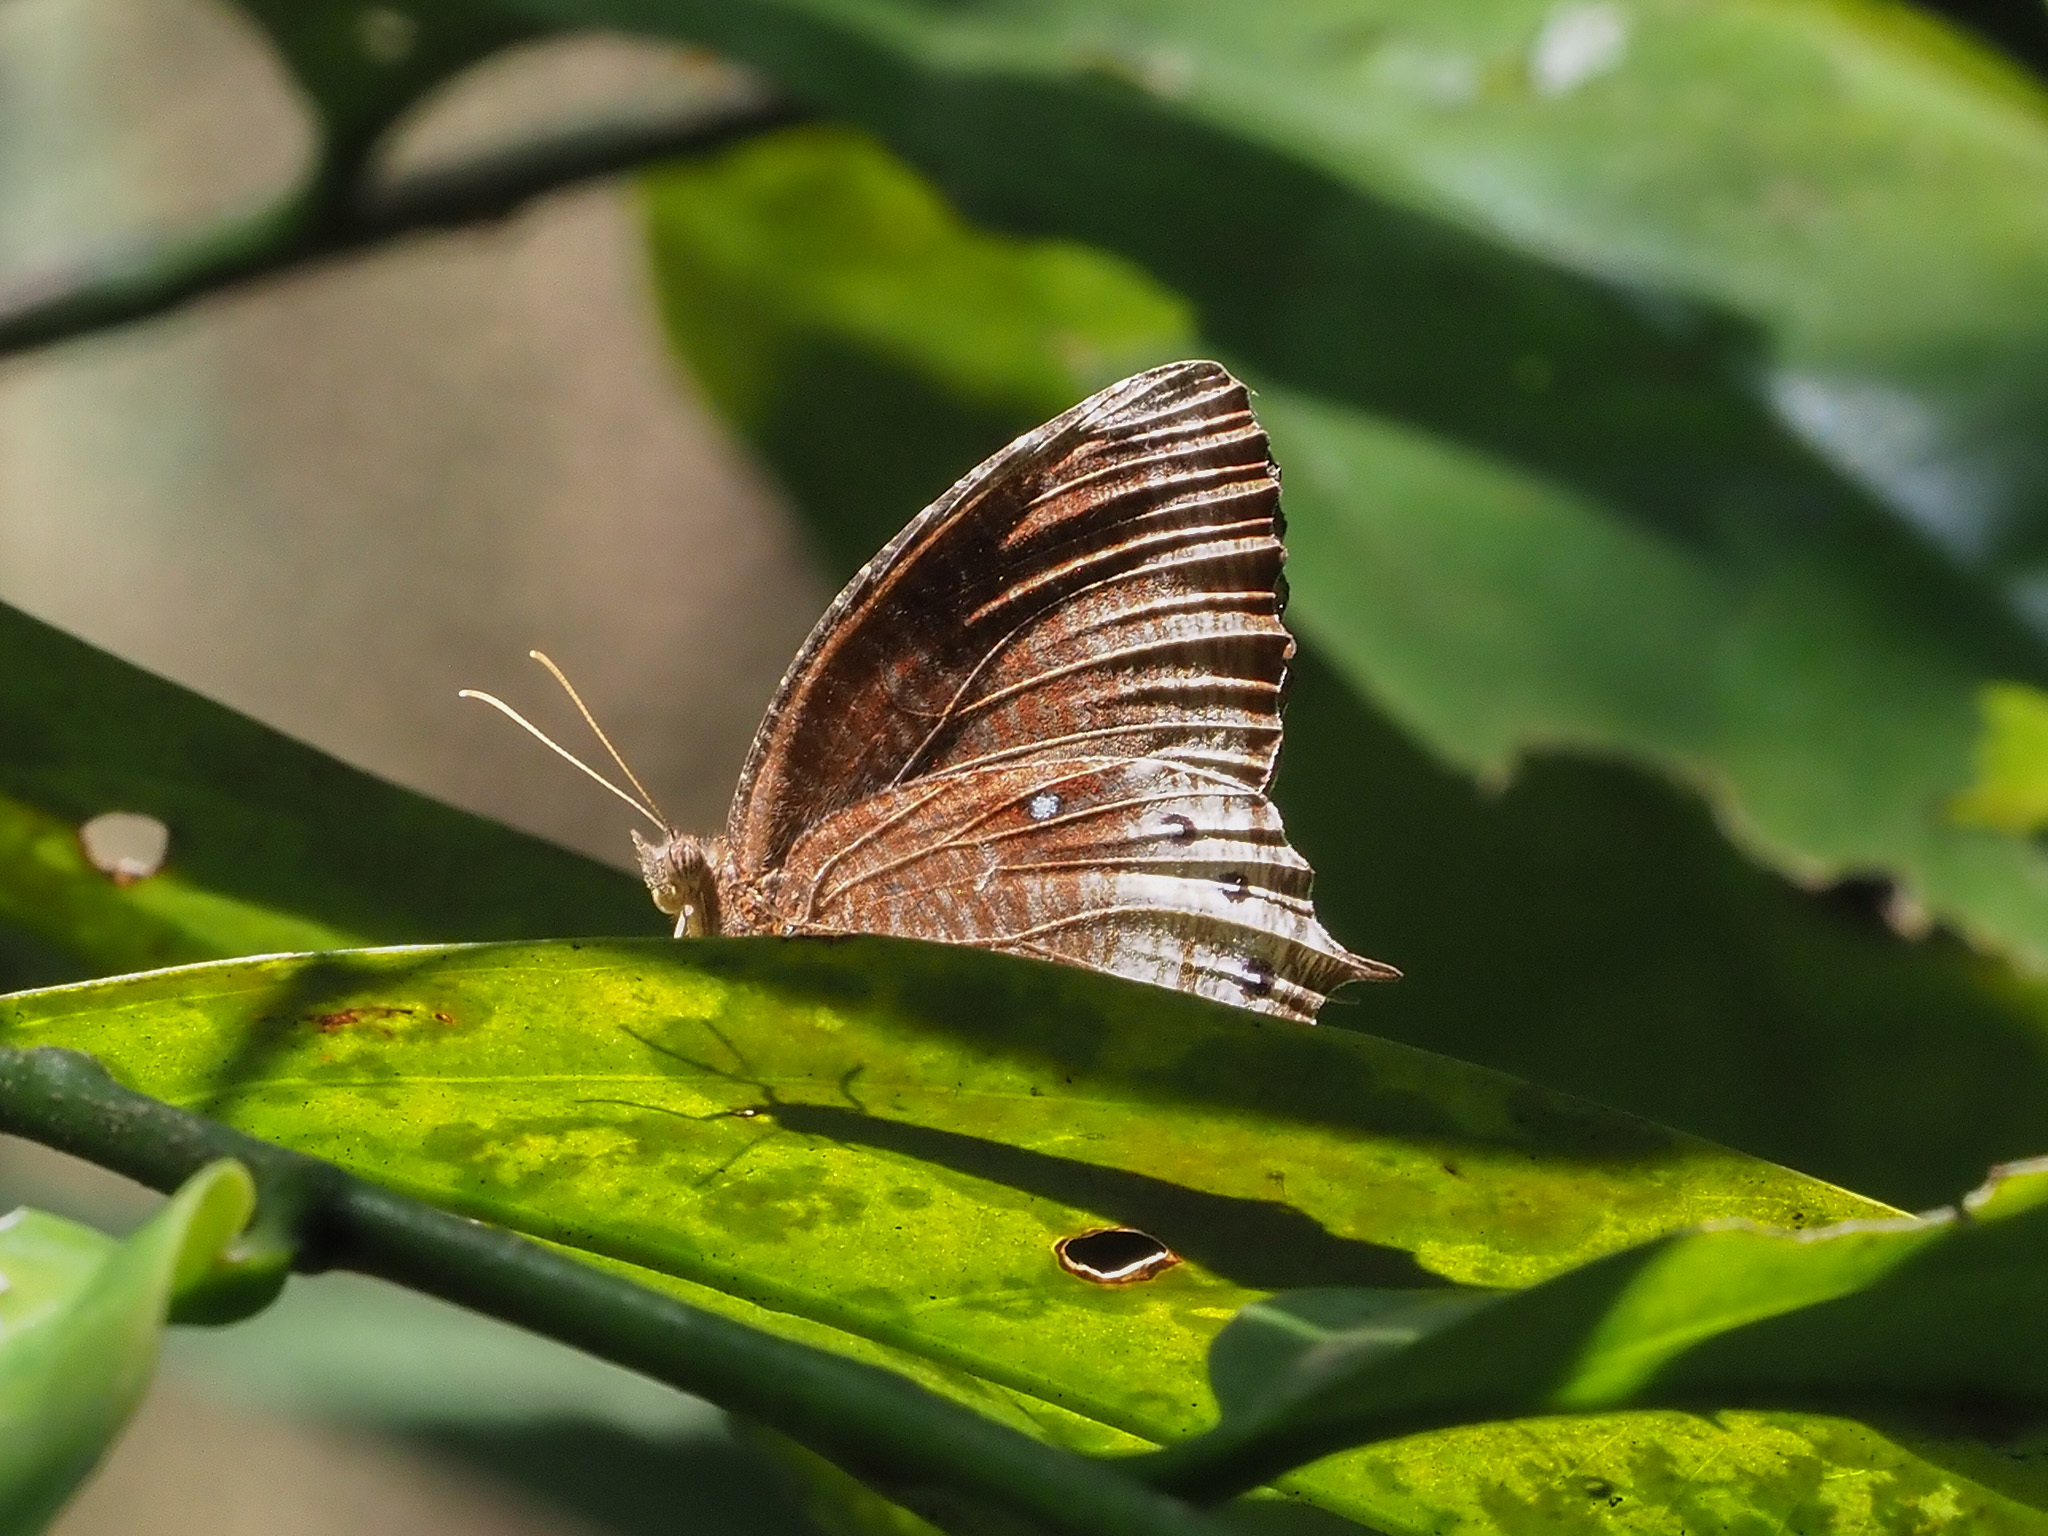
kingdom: Animalia
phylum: Arthropoda
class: Insecta
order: Lepidoptera
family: Nymphalidae
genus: Elymnias
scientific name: Elymnias panthera
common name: Tawny palmfly
